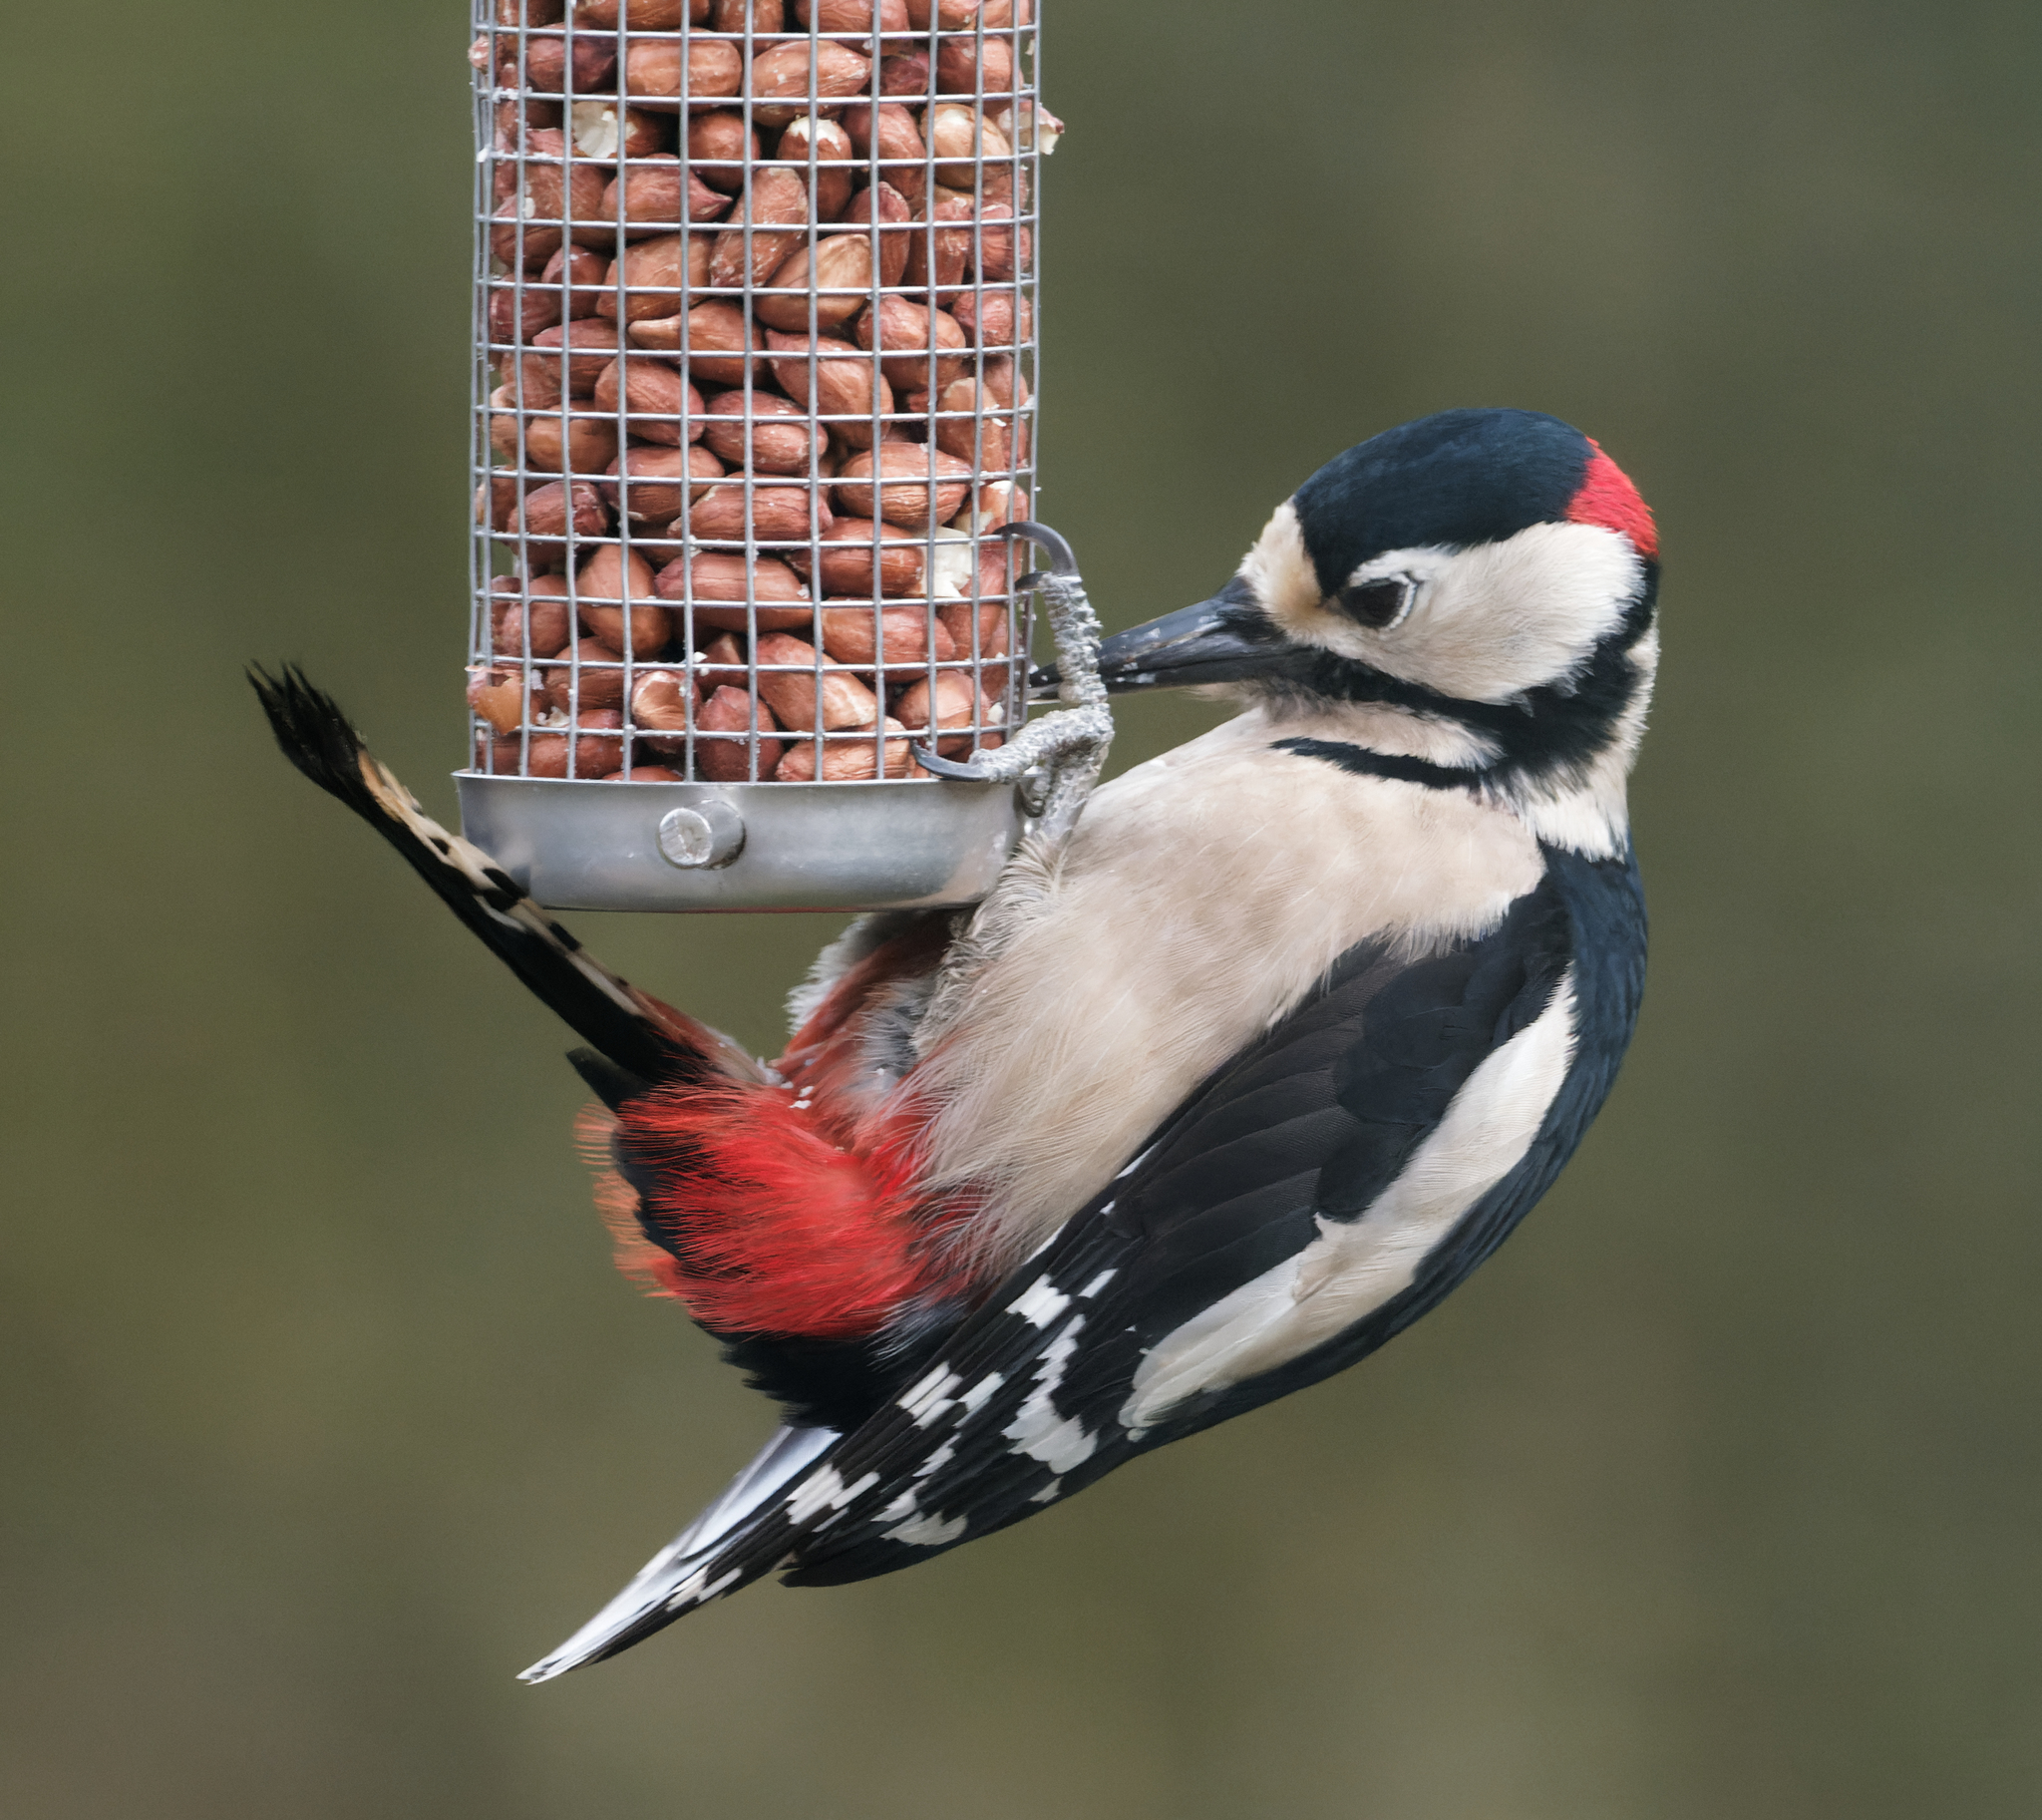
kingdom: Animalia
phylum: Chordata
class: Aves
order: Piciformes
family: Picidae
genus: Dendrocopos
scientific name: Dendrocopos major
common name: Great spotted woodpecker
